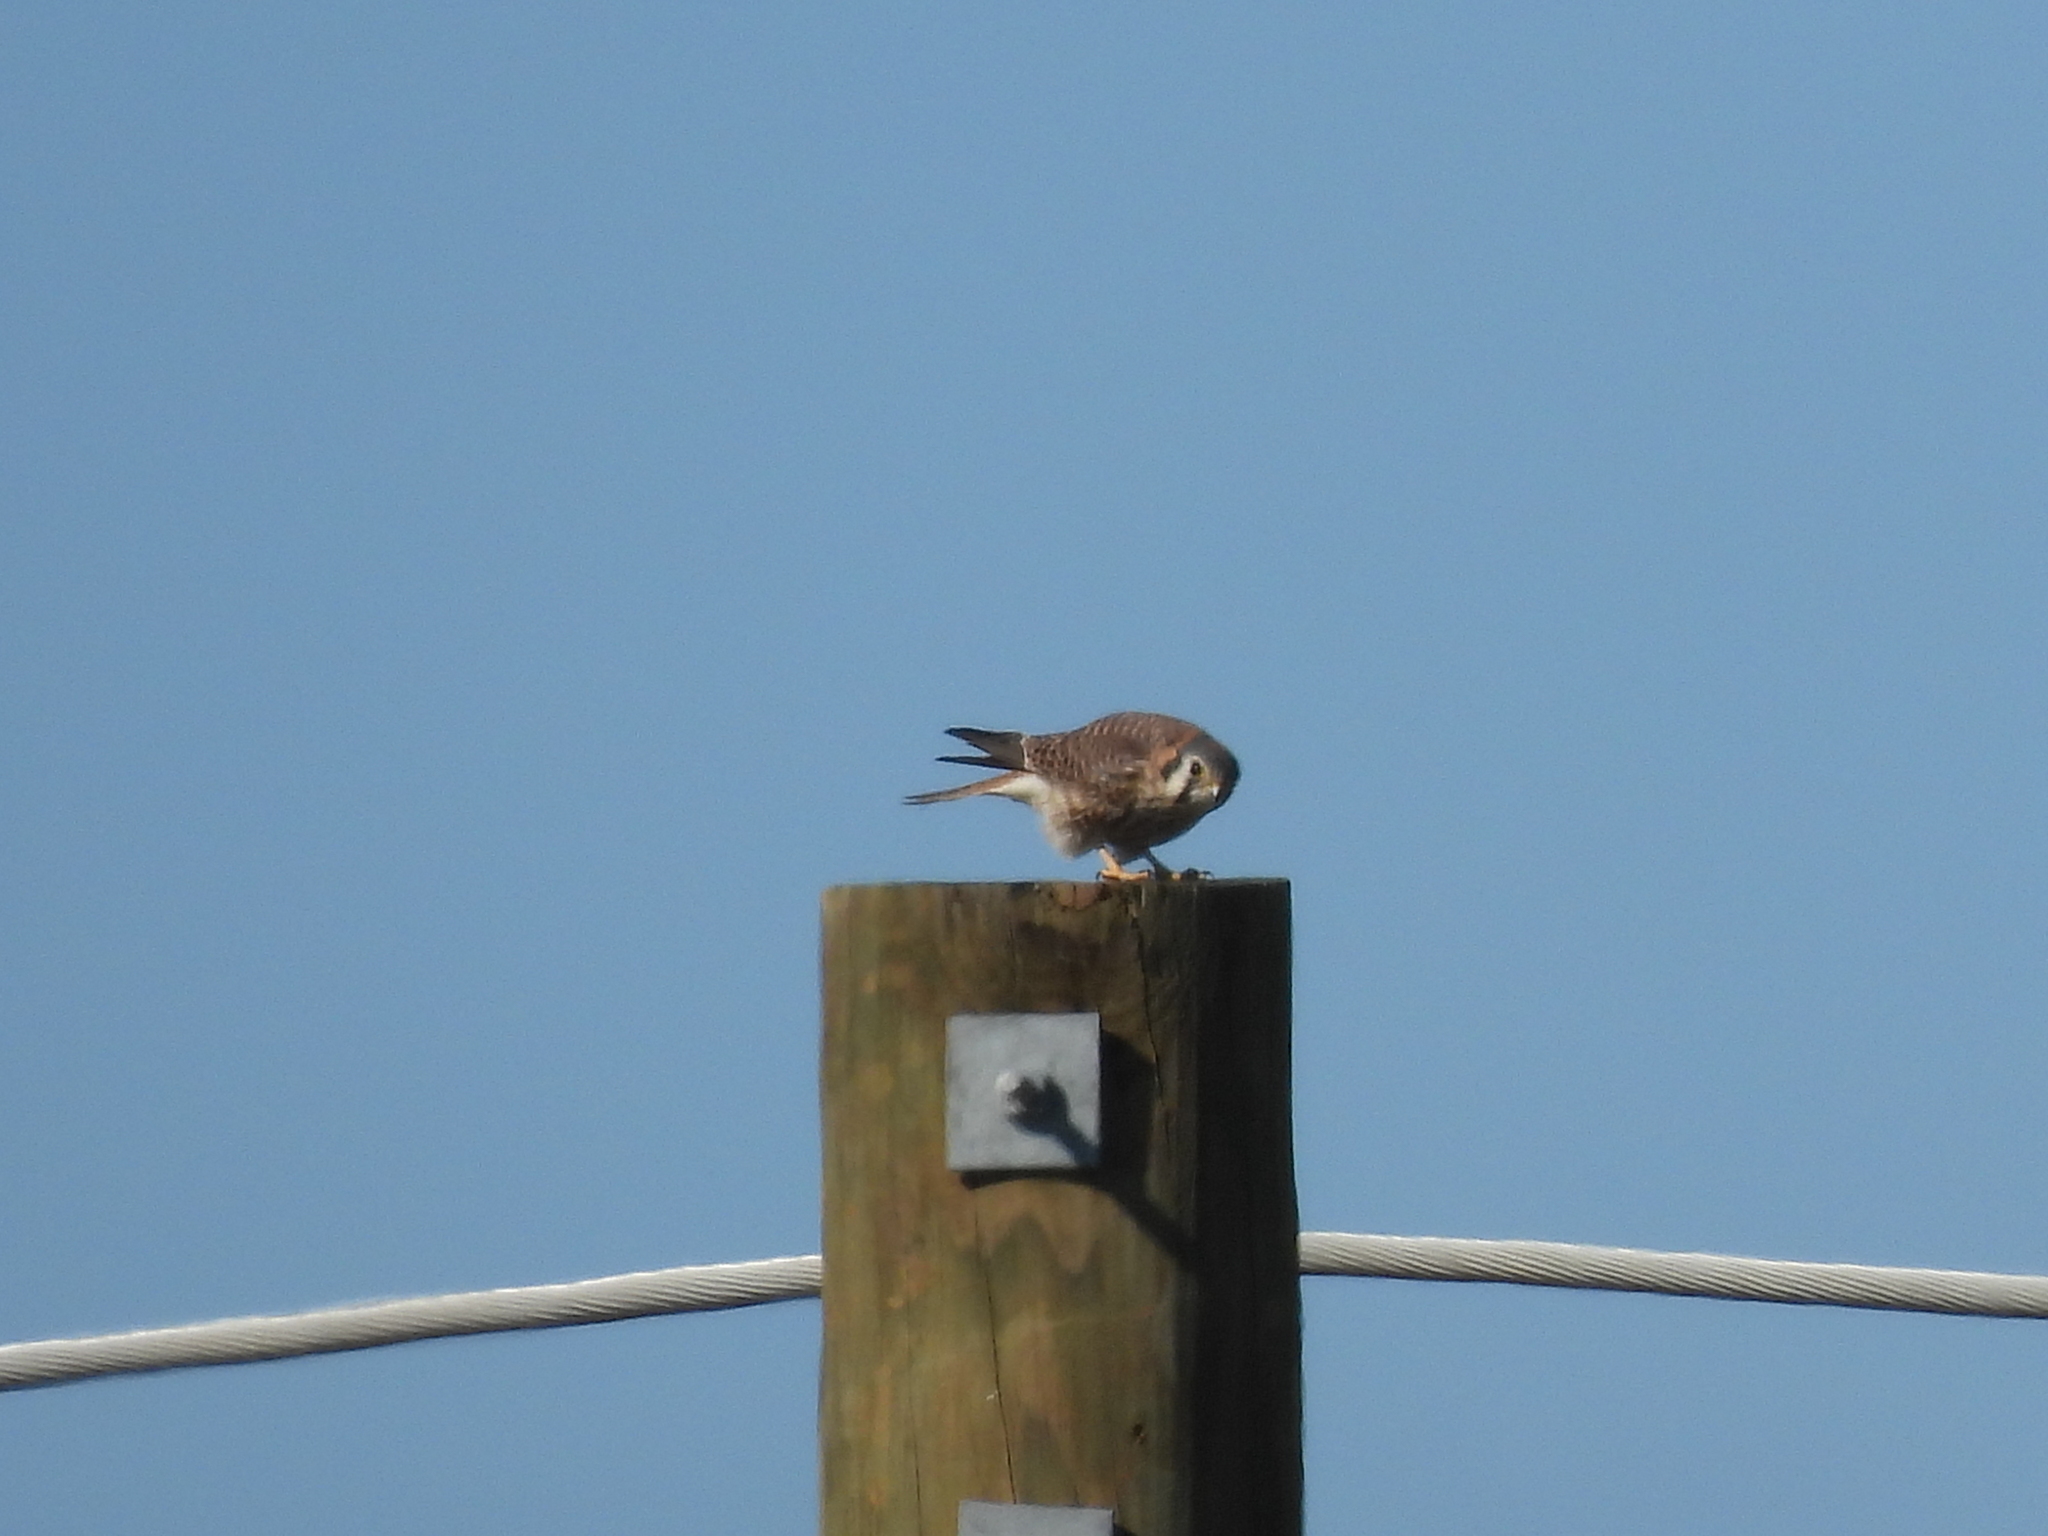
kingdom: Animalia
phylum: Chordata
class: Aves
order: Falconiformes
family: Falconidae
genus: Falco
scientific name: Falco sparverius
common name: American kestrel
